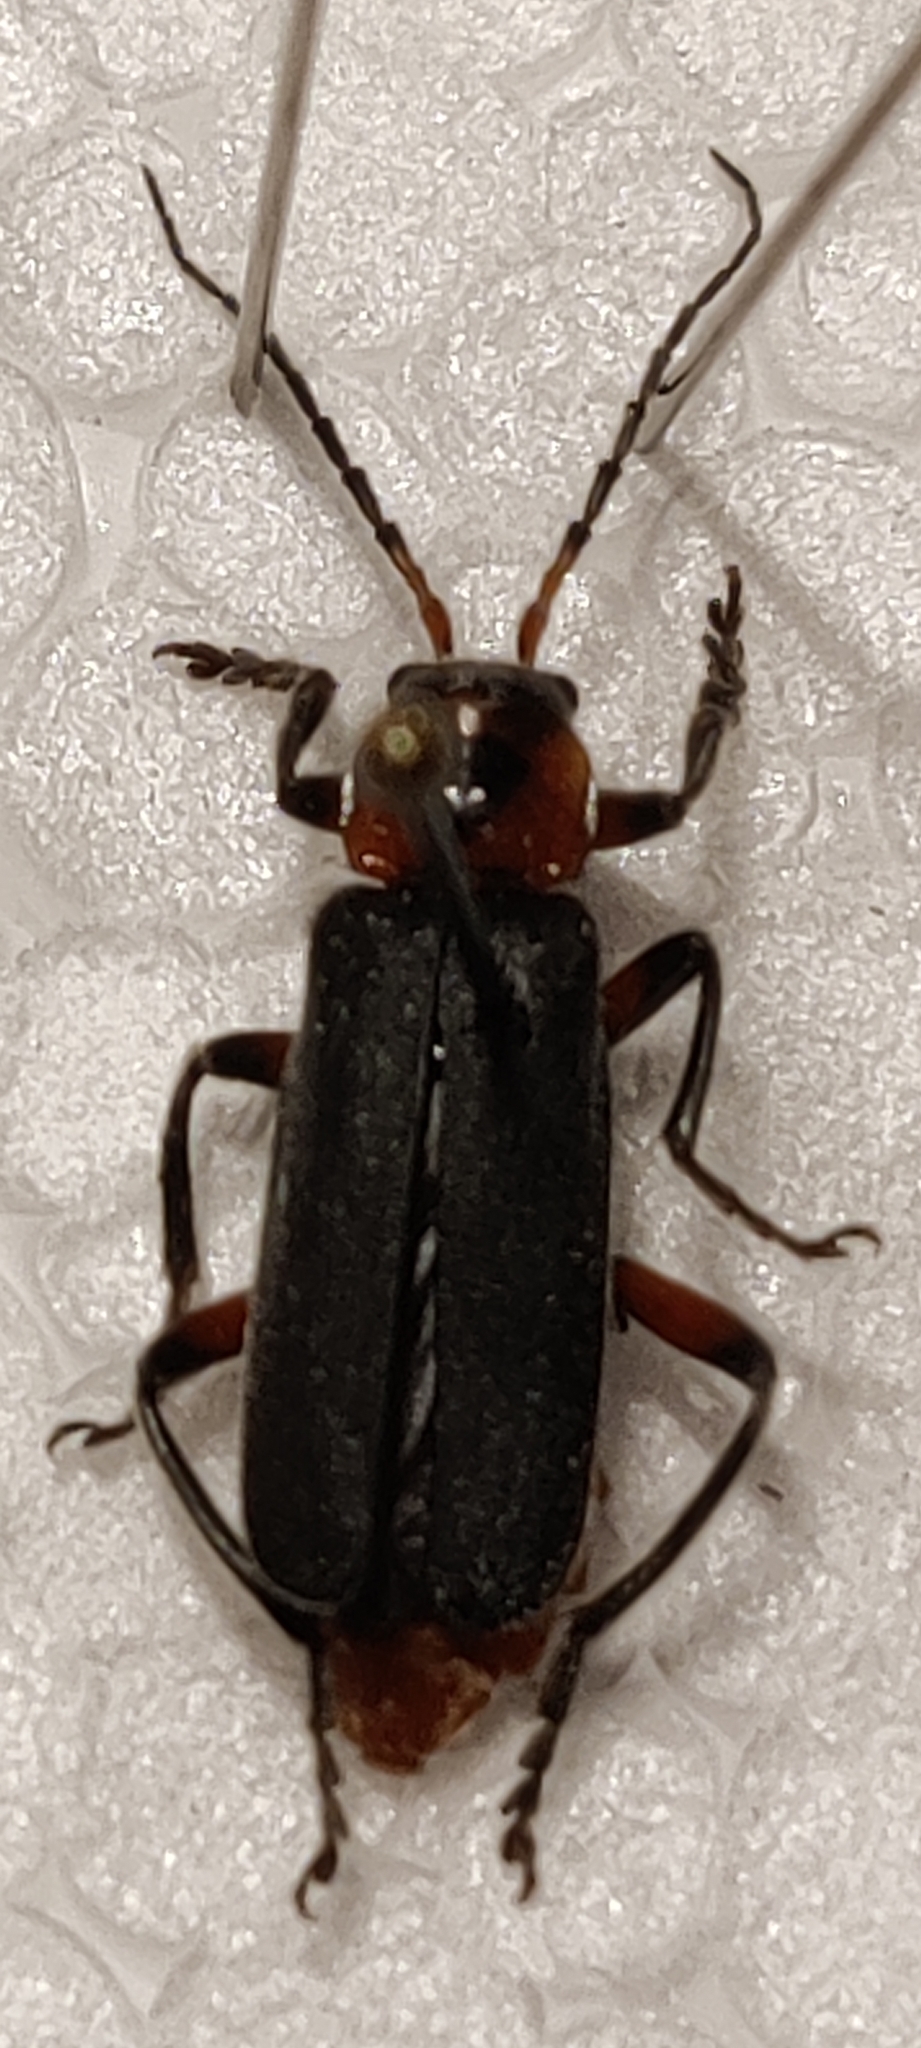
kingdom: Animalia
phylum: Arthropoda
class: Insecta
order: Coleoptera
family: Cantharidae
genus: Cantharis
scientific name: Cantharis rustica
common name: Soldier beetle
